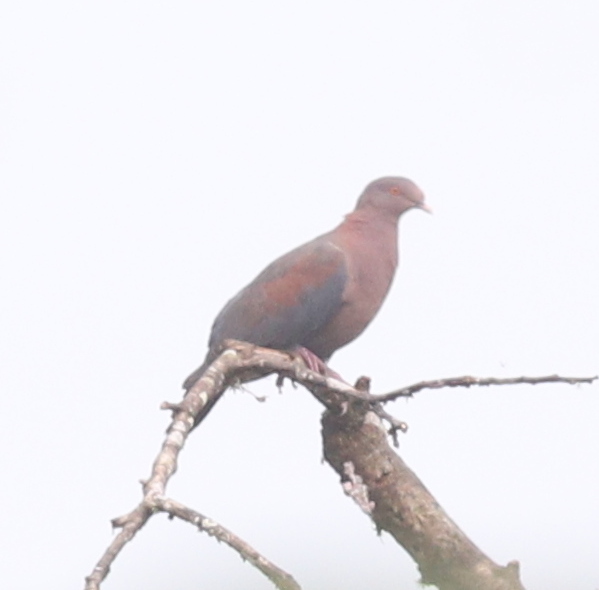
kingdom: Animalia
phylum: Chordata
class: Aves
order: Columbiformes
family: Columbidae
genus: Patagioenas
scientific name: Patagioenas flavirostris
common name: Red-billed pigeon
